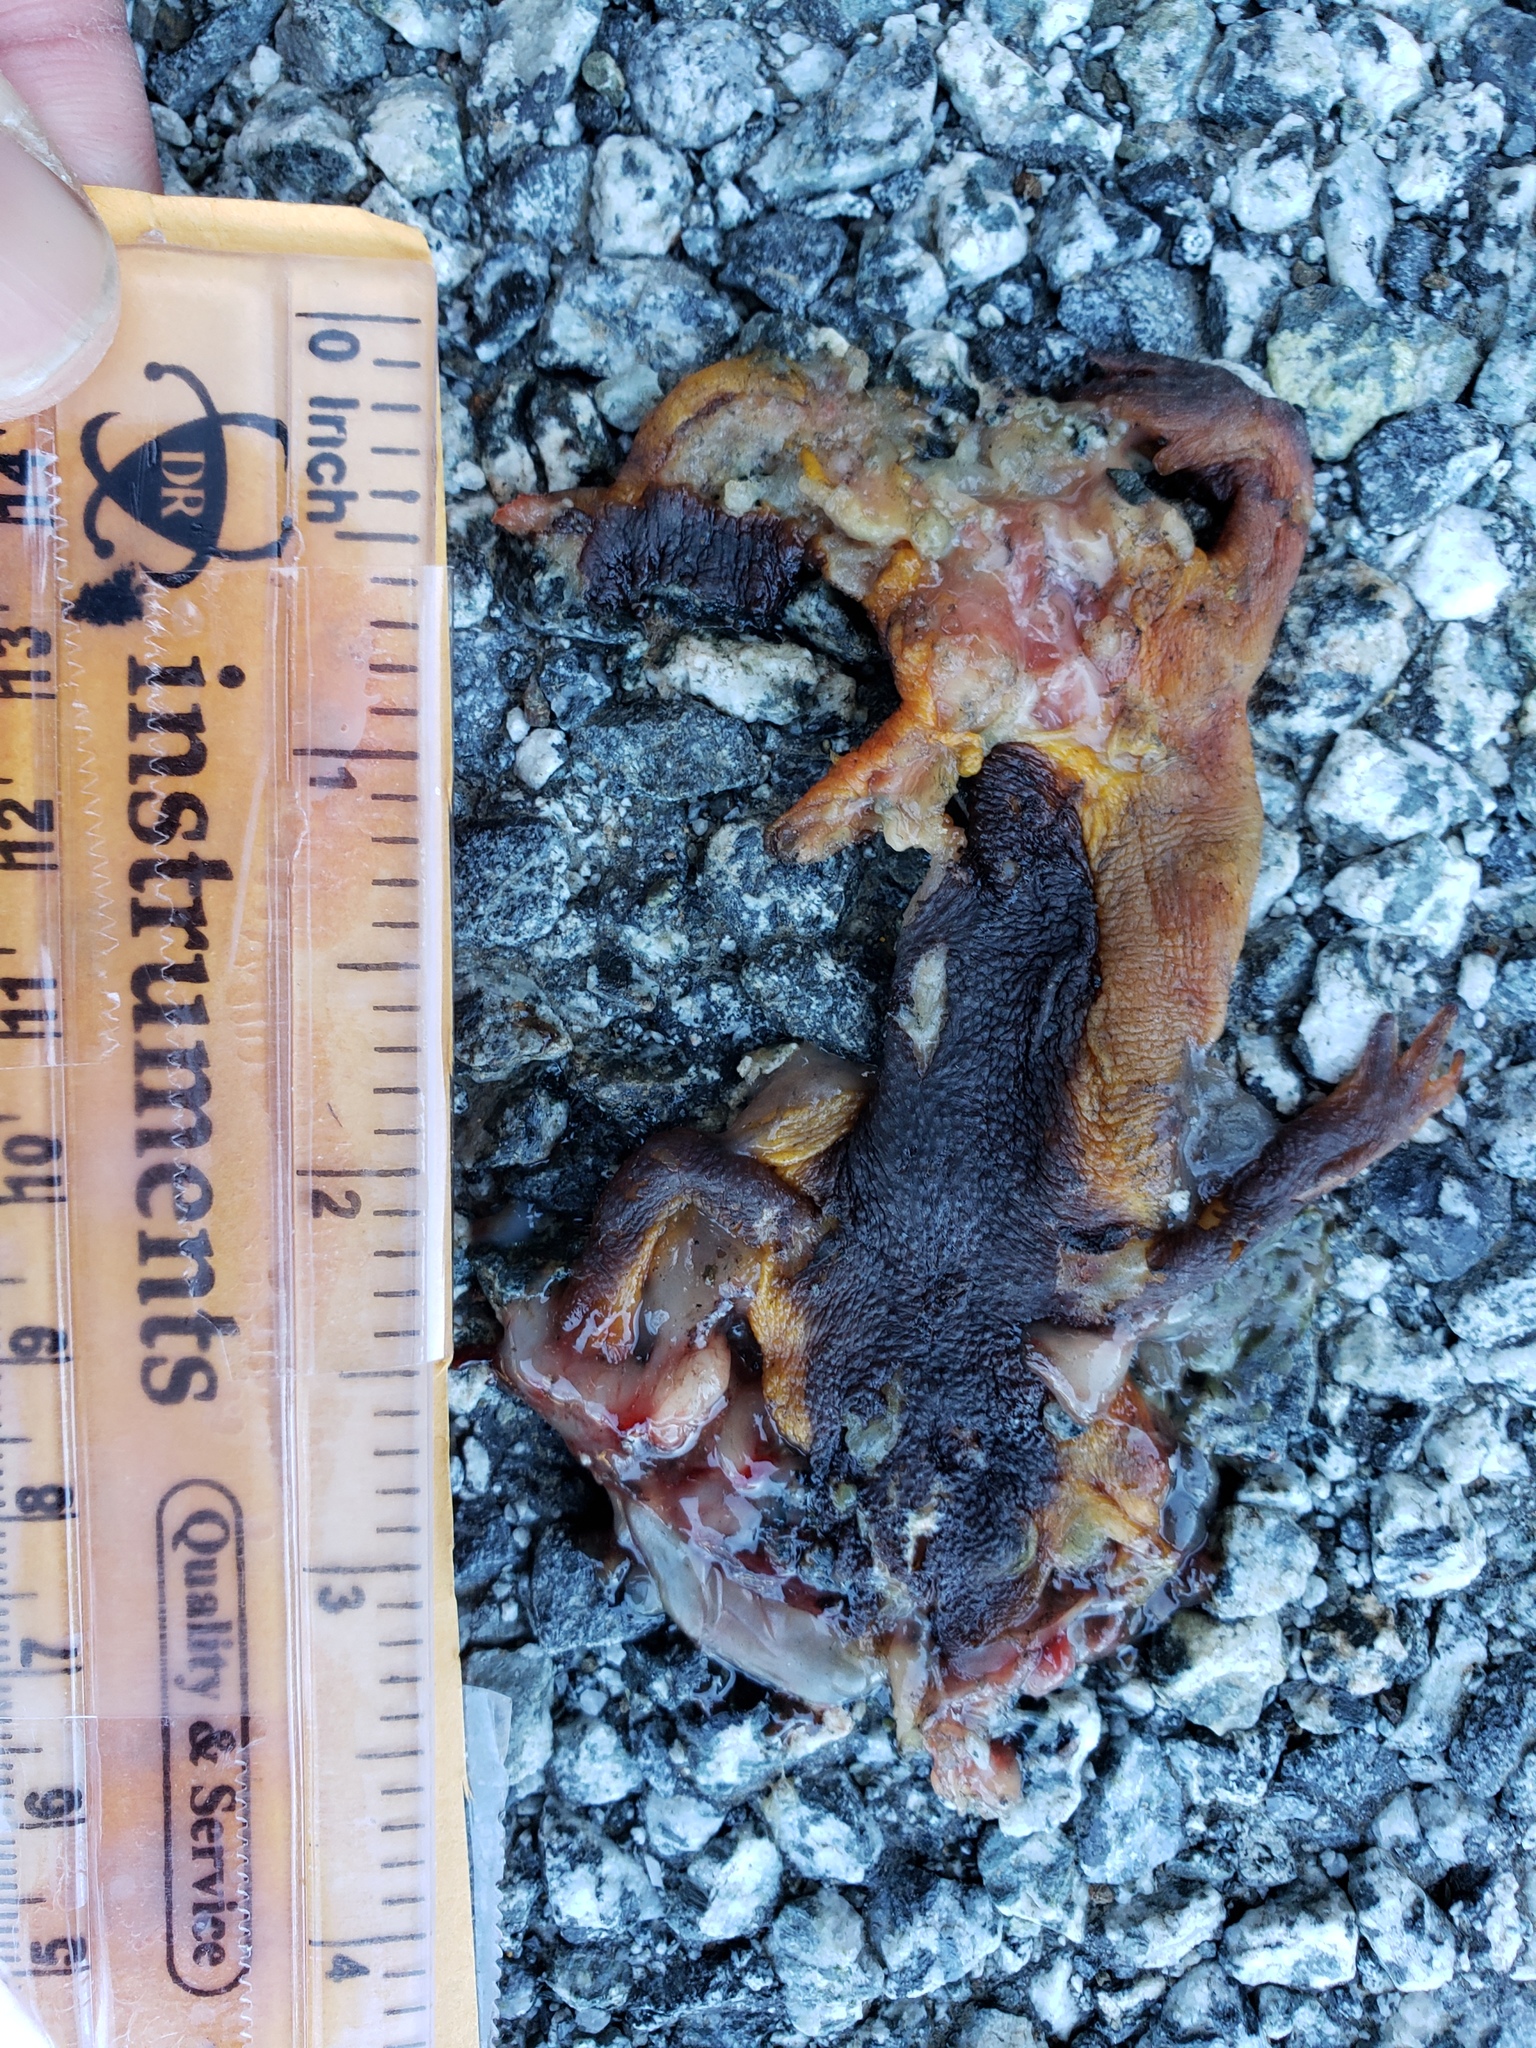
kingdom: Animalia
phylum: Chordata
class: Amphibia
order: Caudata
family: Salamandridae
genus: Taricha
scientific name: Taricha
